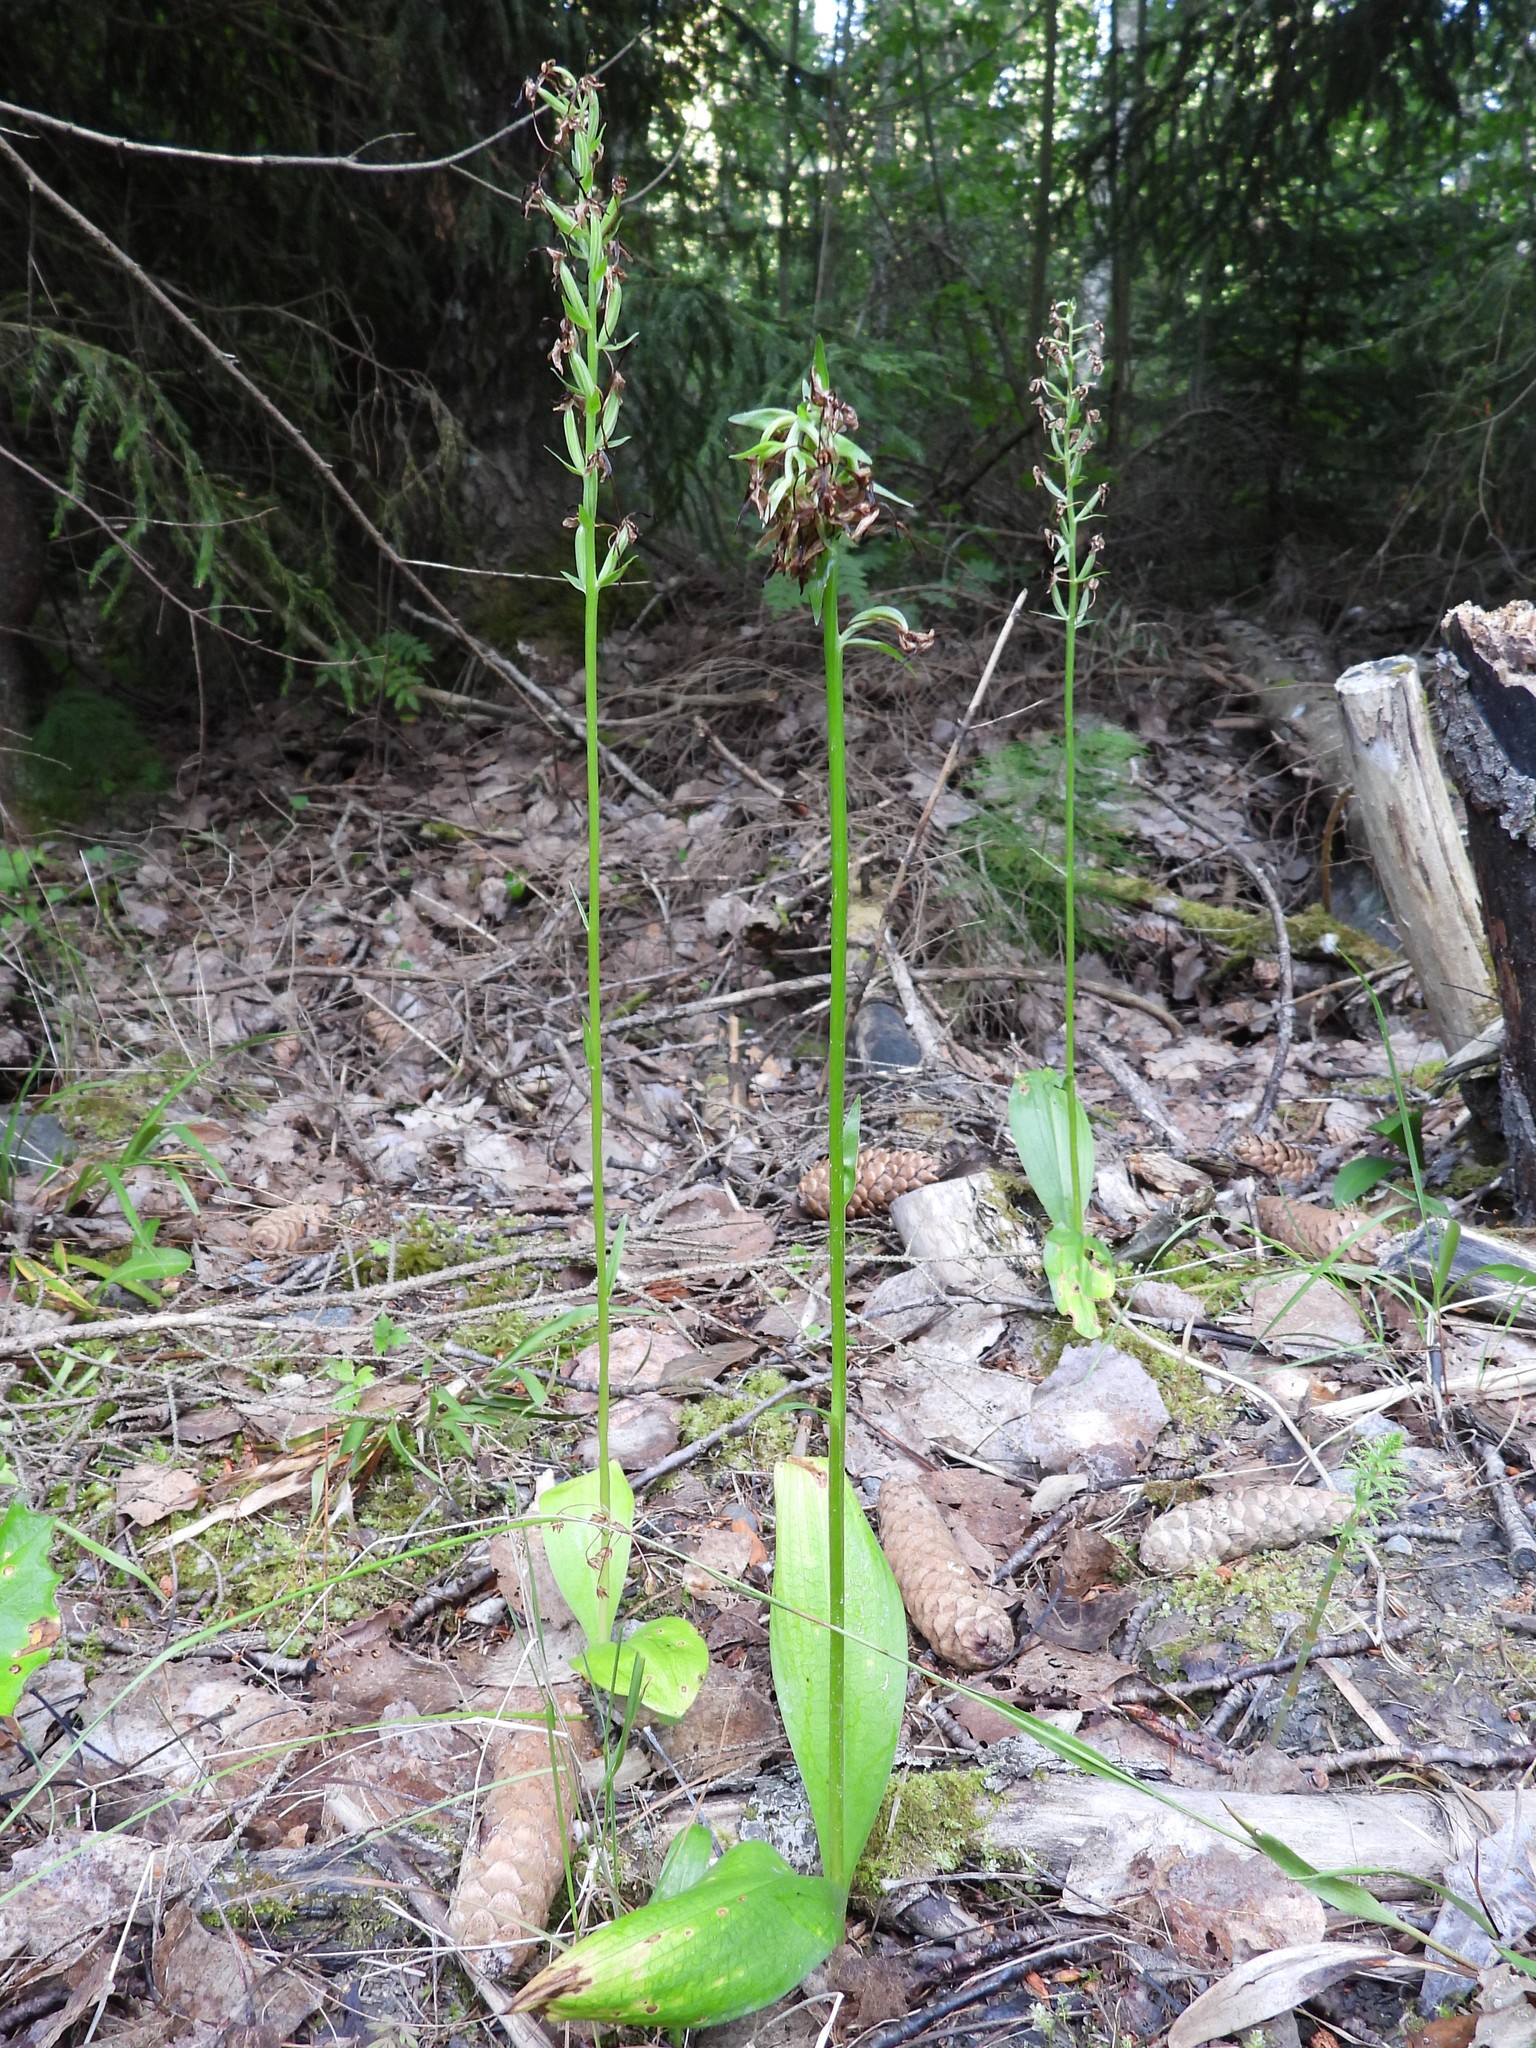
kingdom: Plantae
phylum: Tracheophyta
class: Liliopsida
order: Asparagales
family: Orchidaceae
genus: Platanthera
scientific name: Platanthera bifolia
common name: Lesser butterfly-orchid
